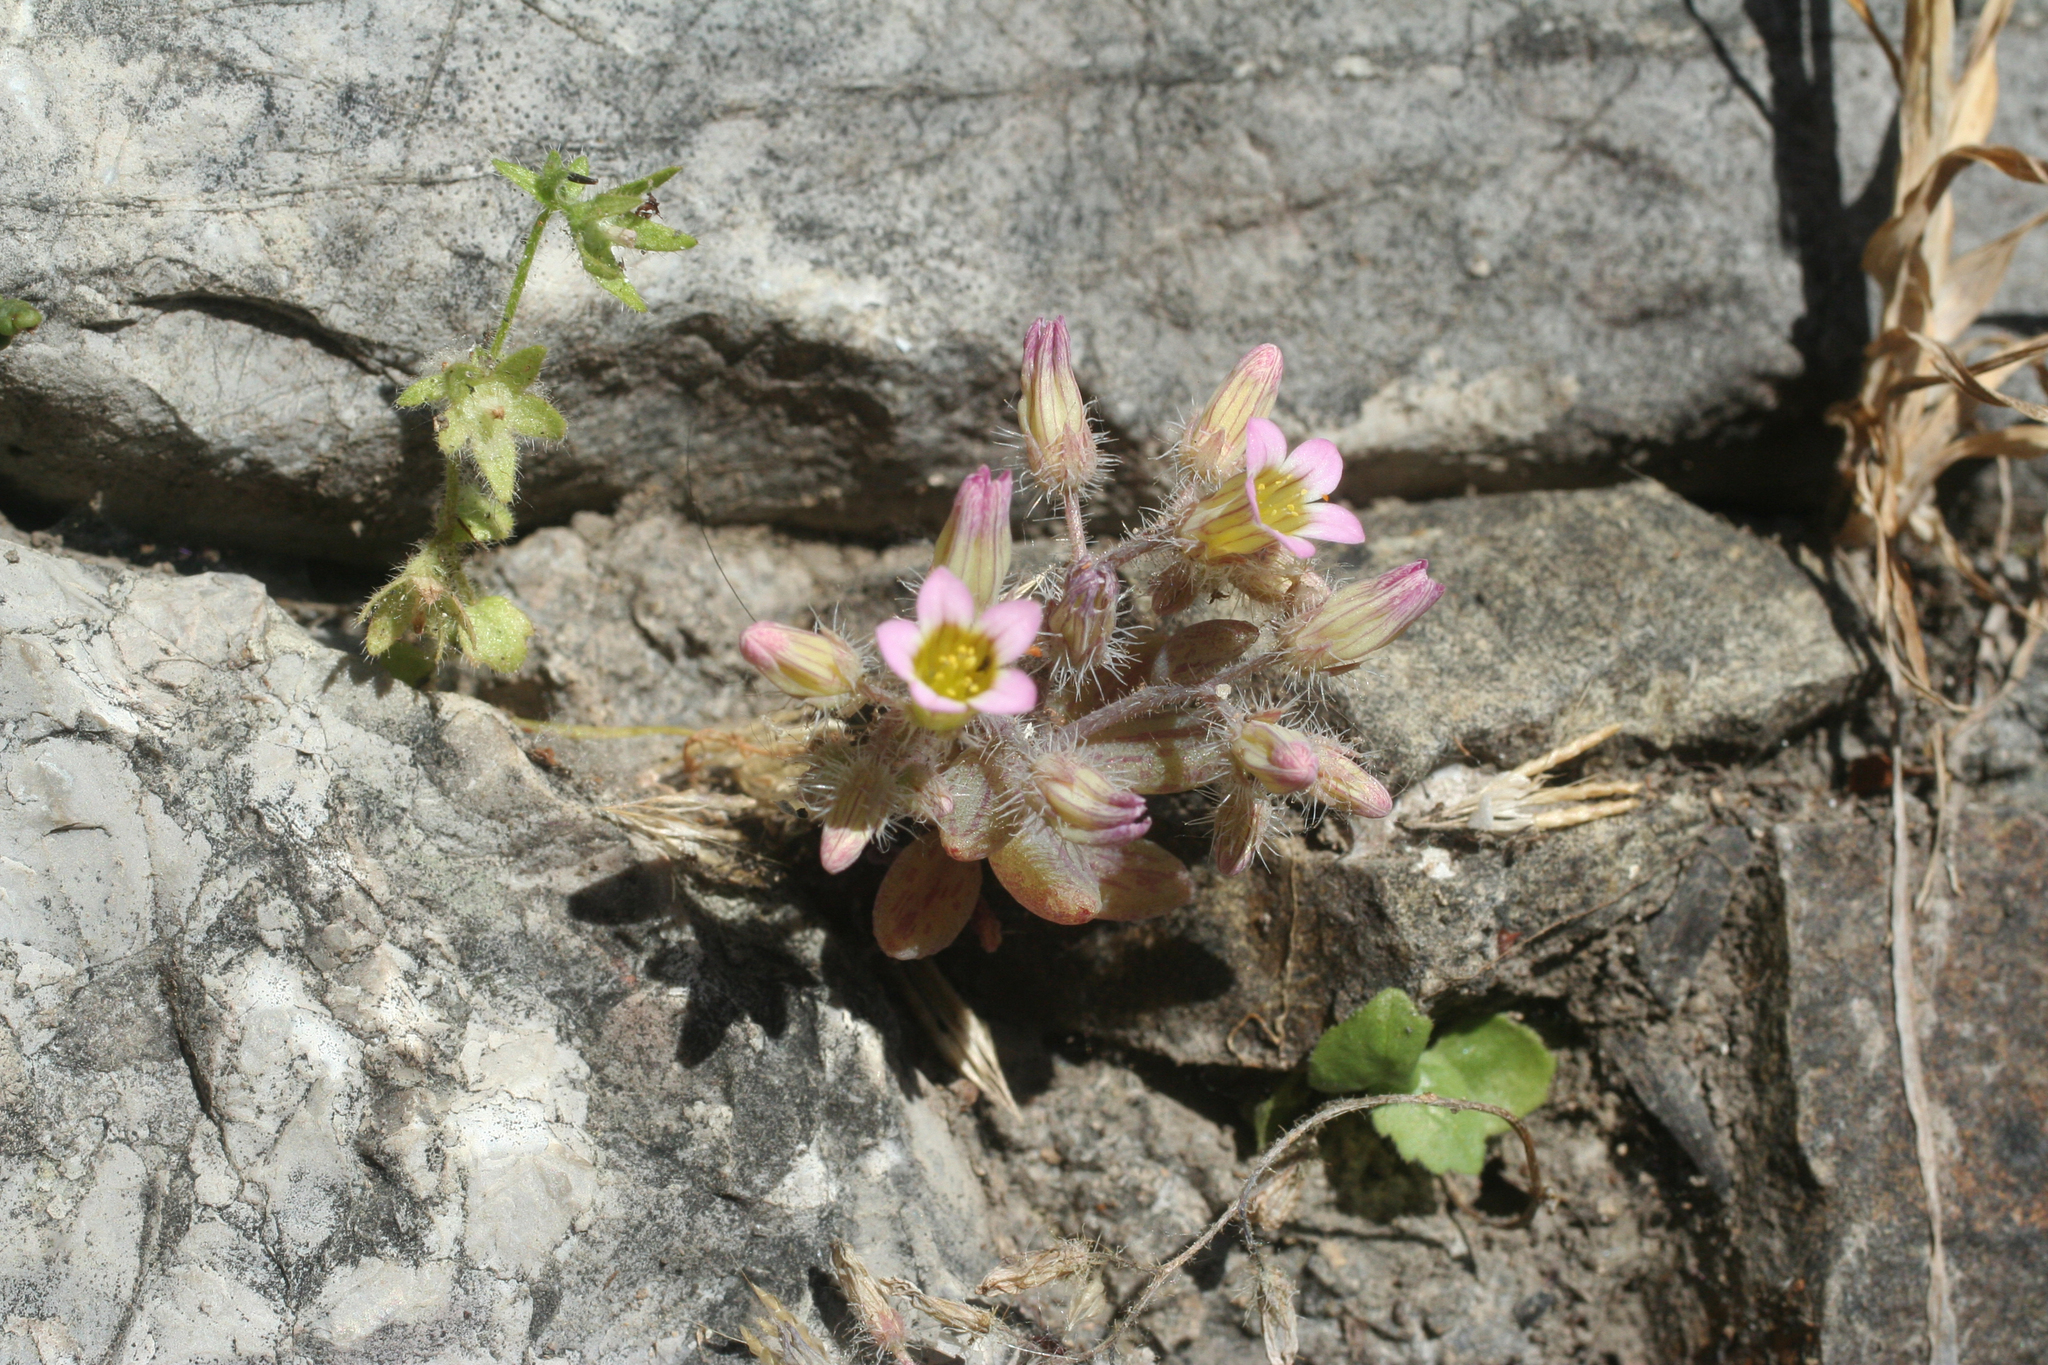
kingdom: Plantae
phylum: Tracheophyta
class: Magnoliopsida
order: Saxifragales
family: Crassulaceae
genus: Sedum
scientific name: Sedum mucizonia
